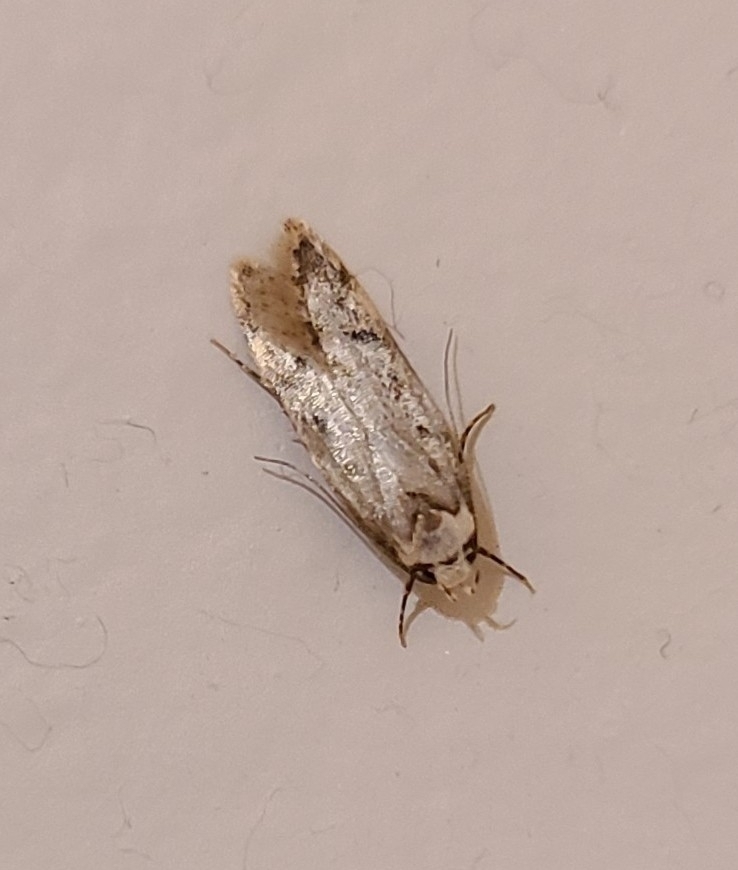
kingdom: Animalia
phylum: Arthropoda
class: Insecta
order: Lepidoptera
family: Oecophoridae
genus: Endrosis
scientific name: Endrosis sarcitrella
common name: White-shouldered house moth
